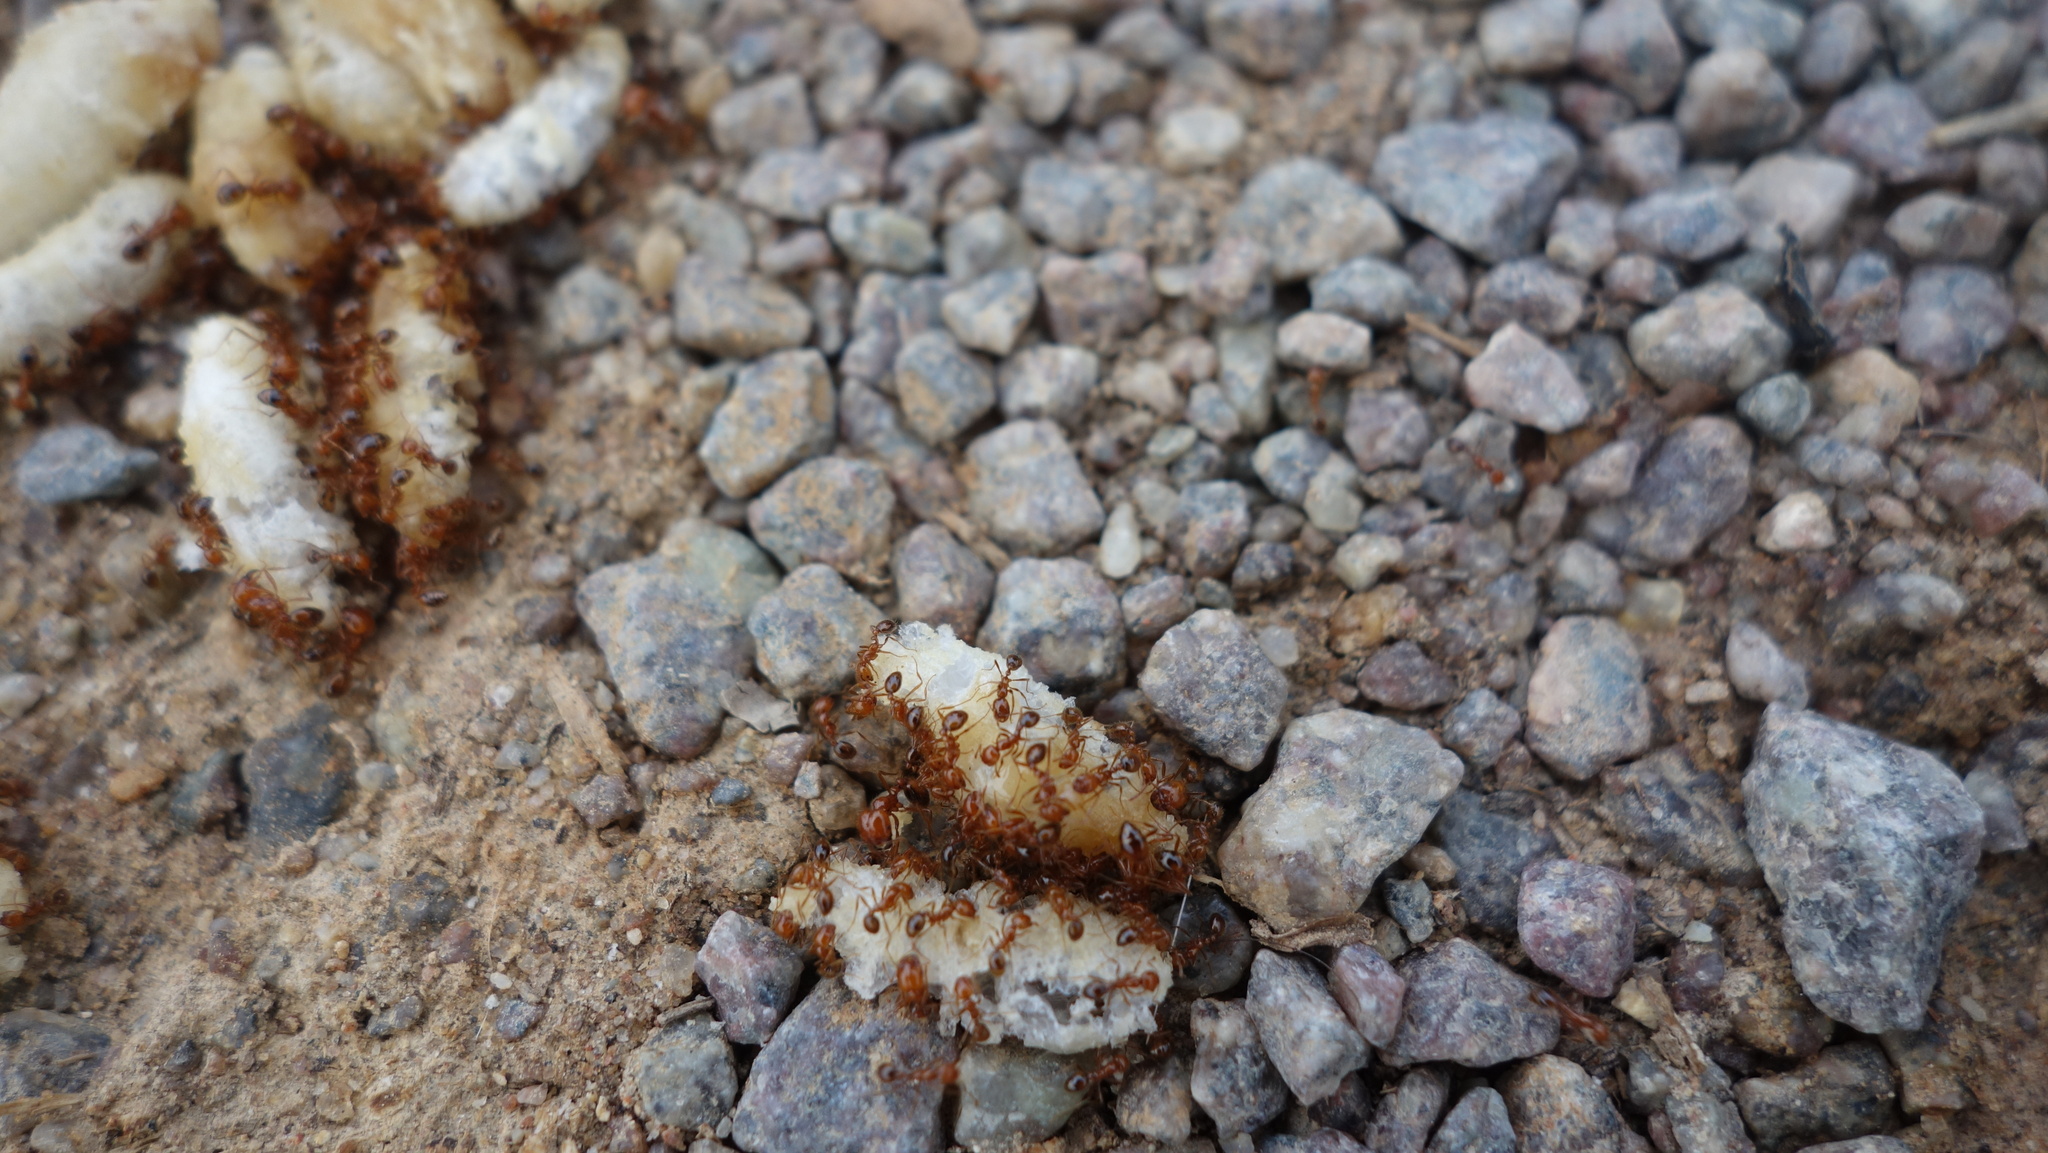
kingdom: Animalia
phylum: Arthropoda
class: Insecta
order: Hymenoptera
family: Formicidae
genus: Solenopsis
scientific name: Solenopsis geminata
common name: Tropical fire ant
